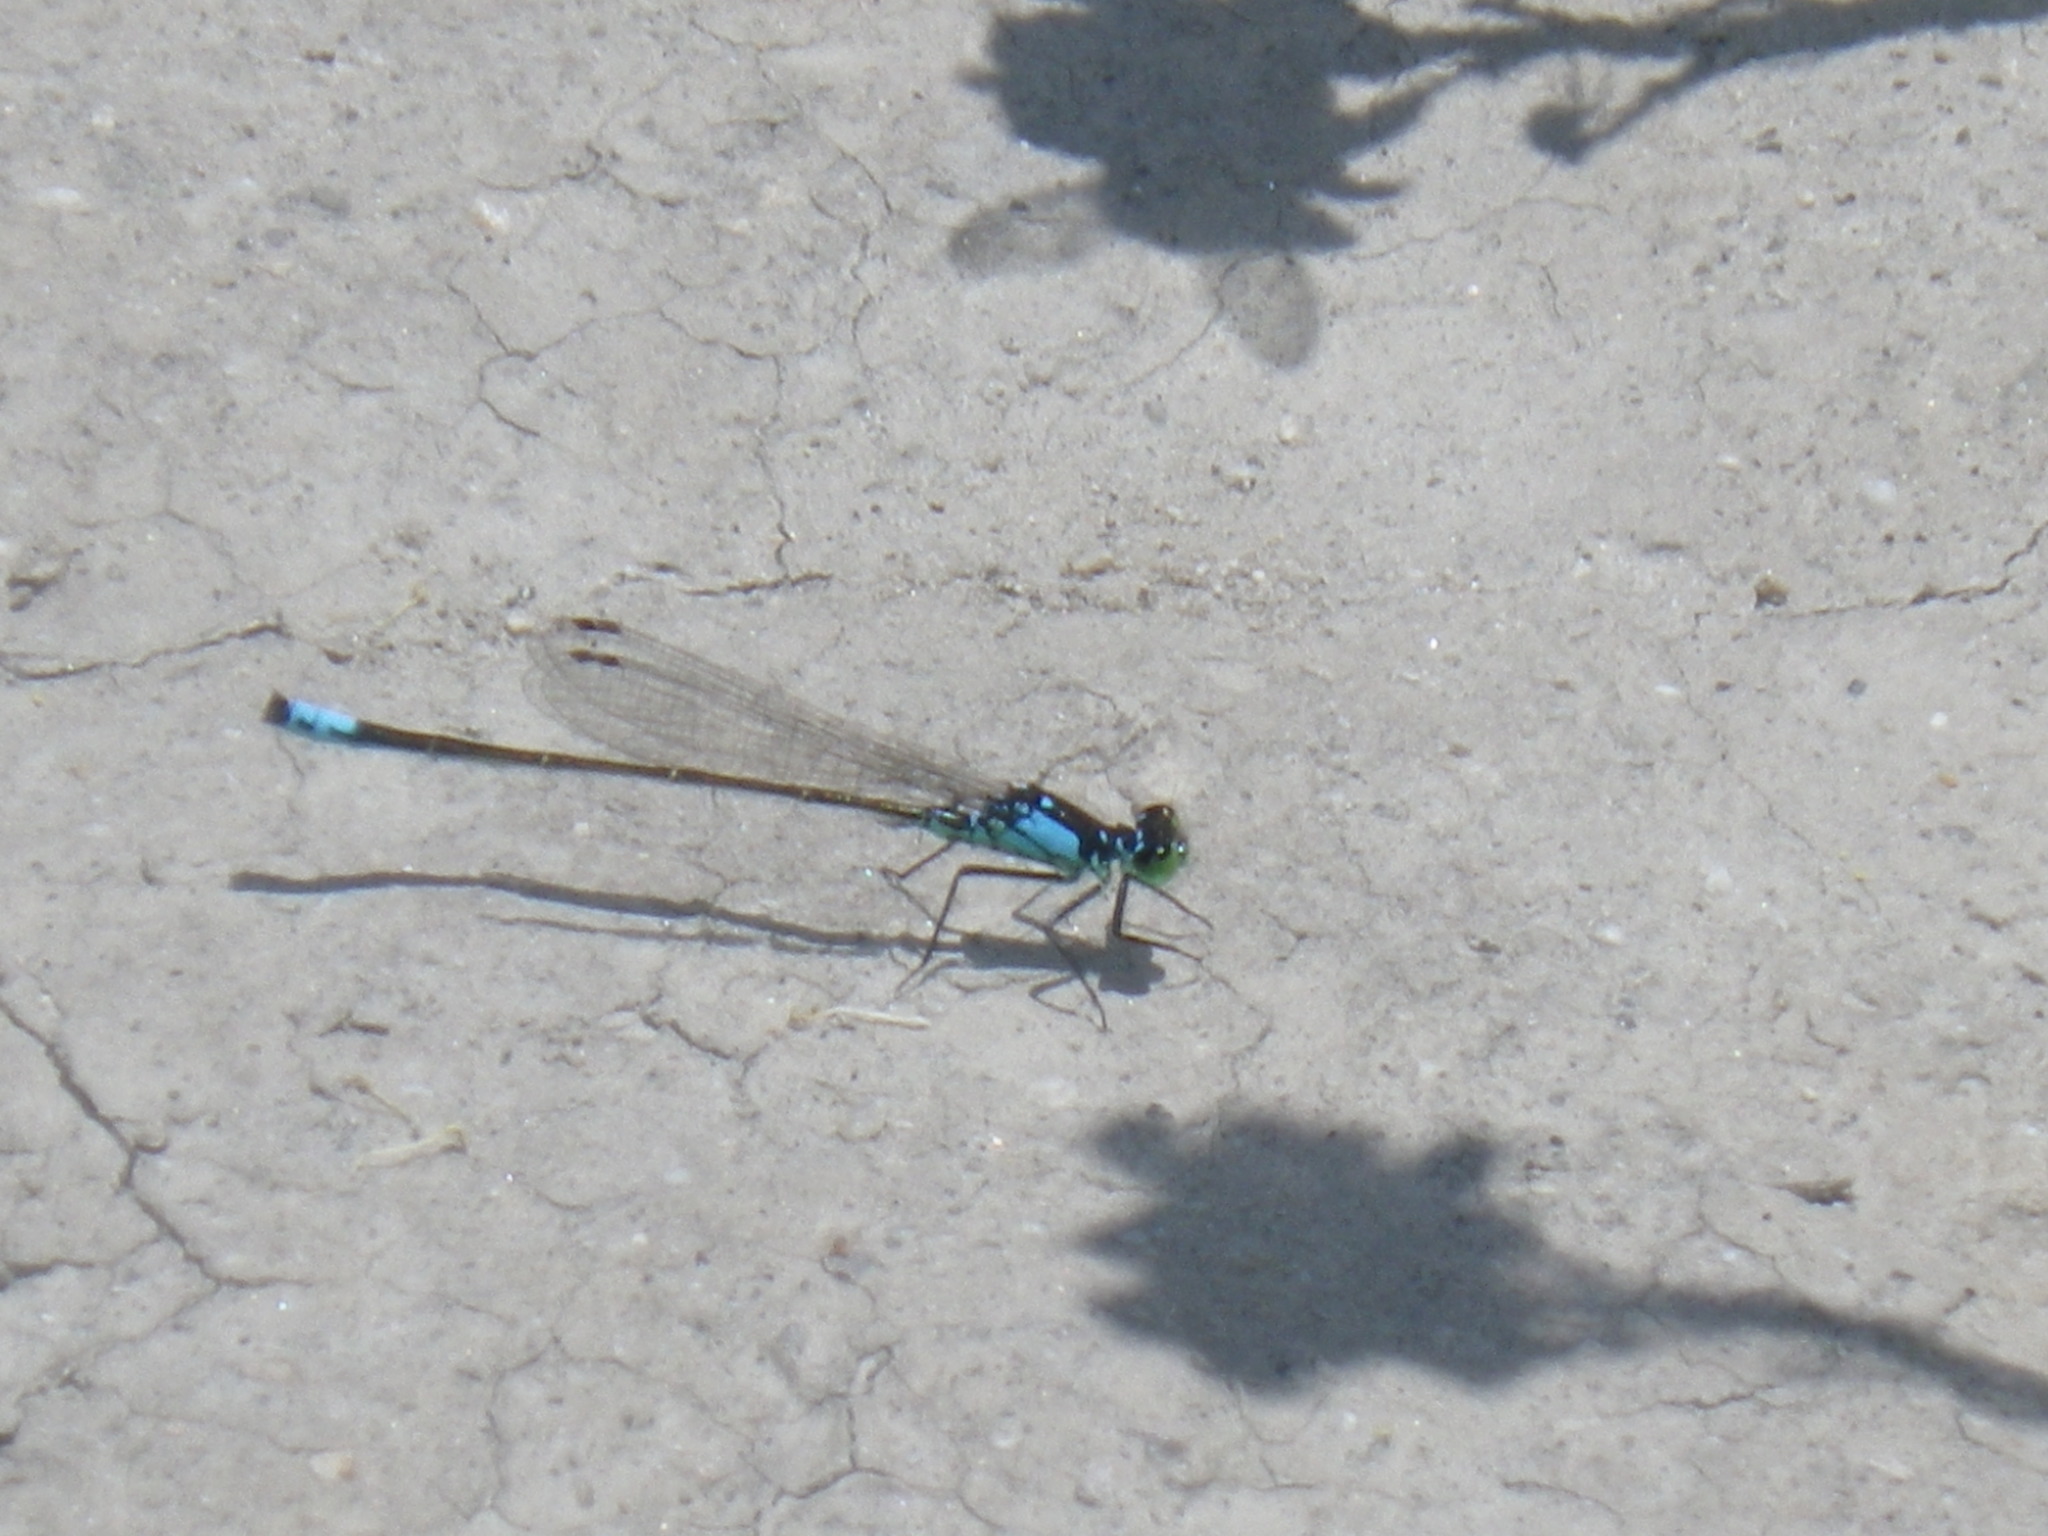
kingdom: Animalia
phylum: Arthropoda
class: Insecta
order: Odonata
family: Coenagrionidae
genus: Ischnura
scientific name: Ischnura cervula
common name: Pacific forktail
